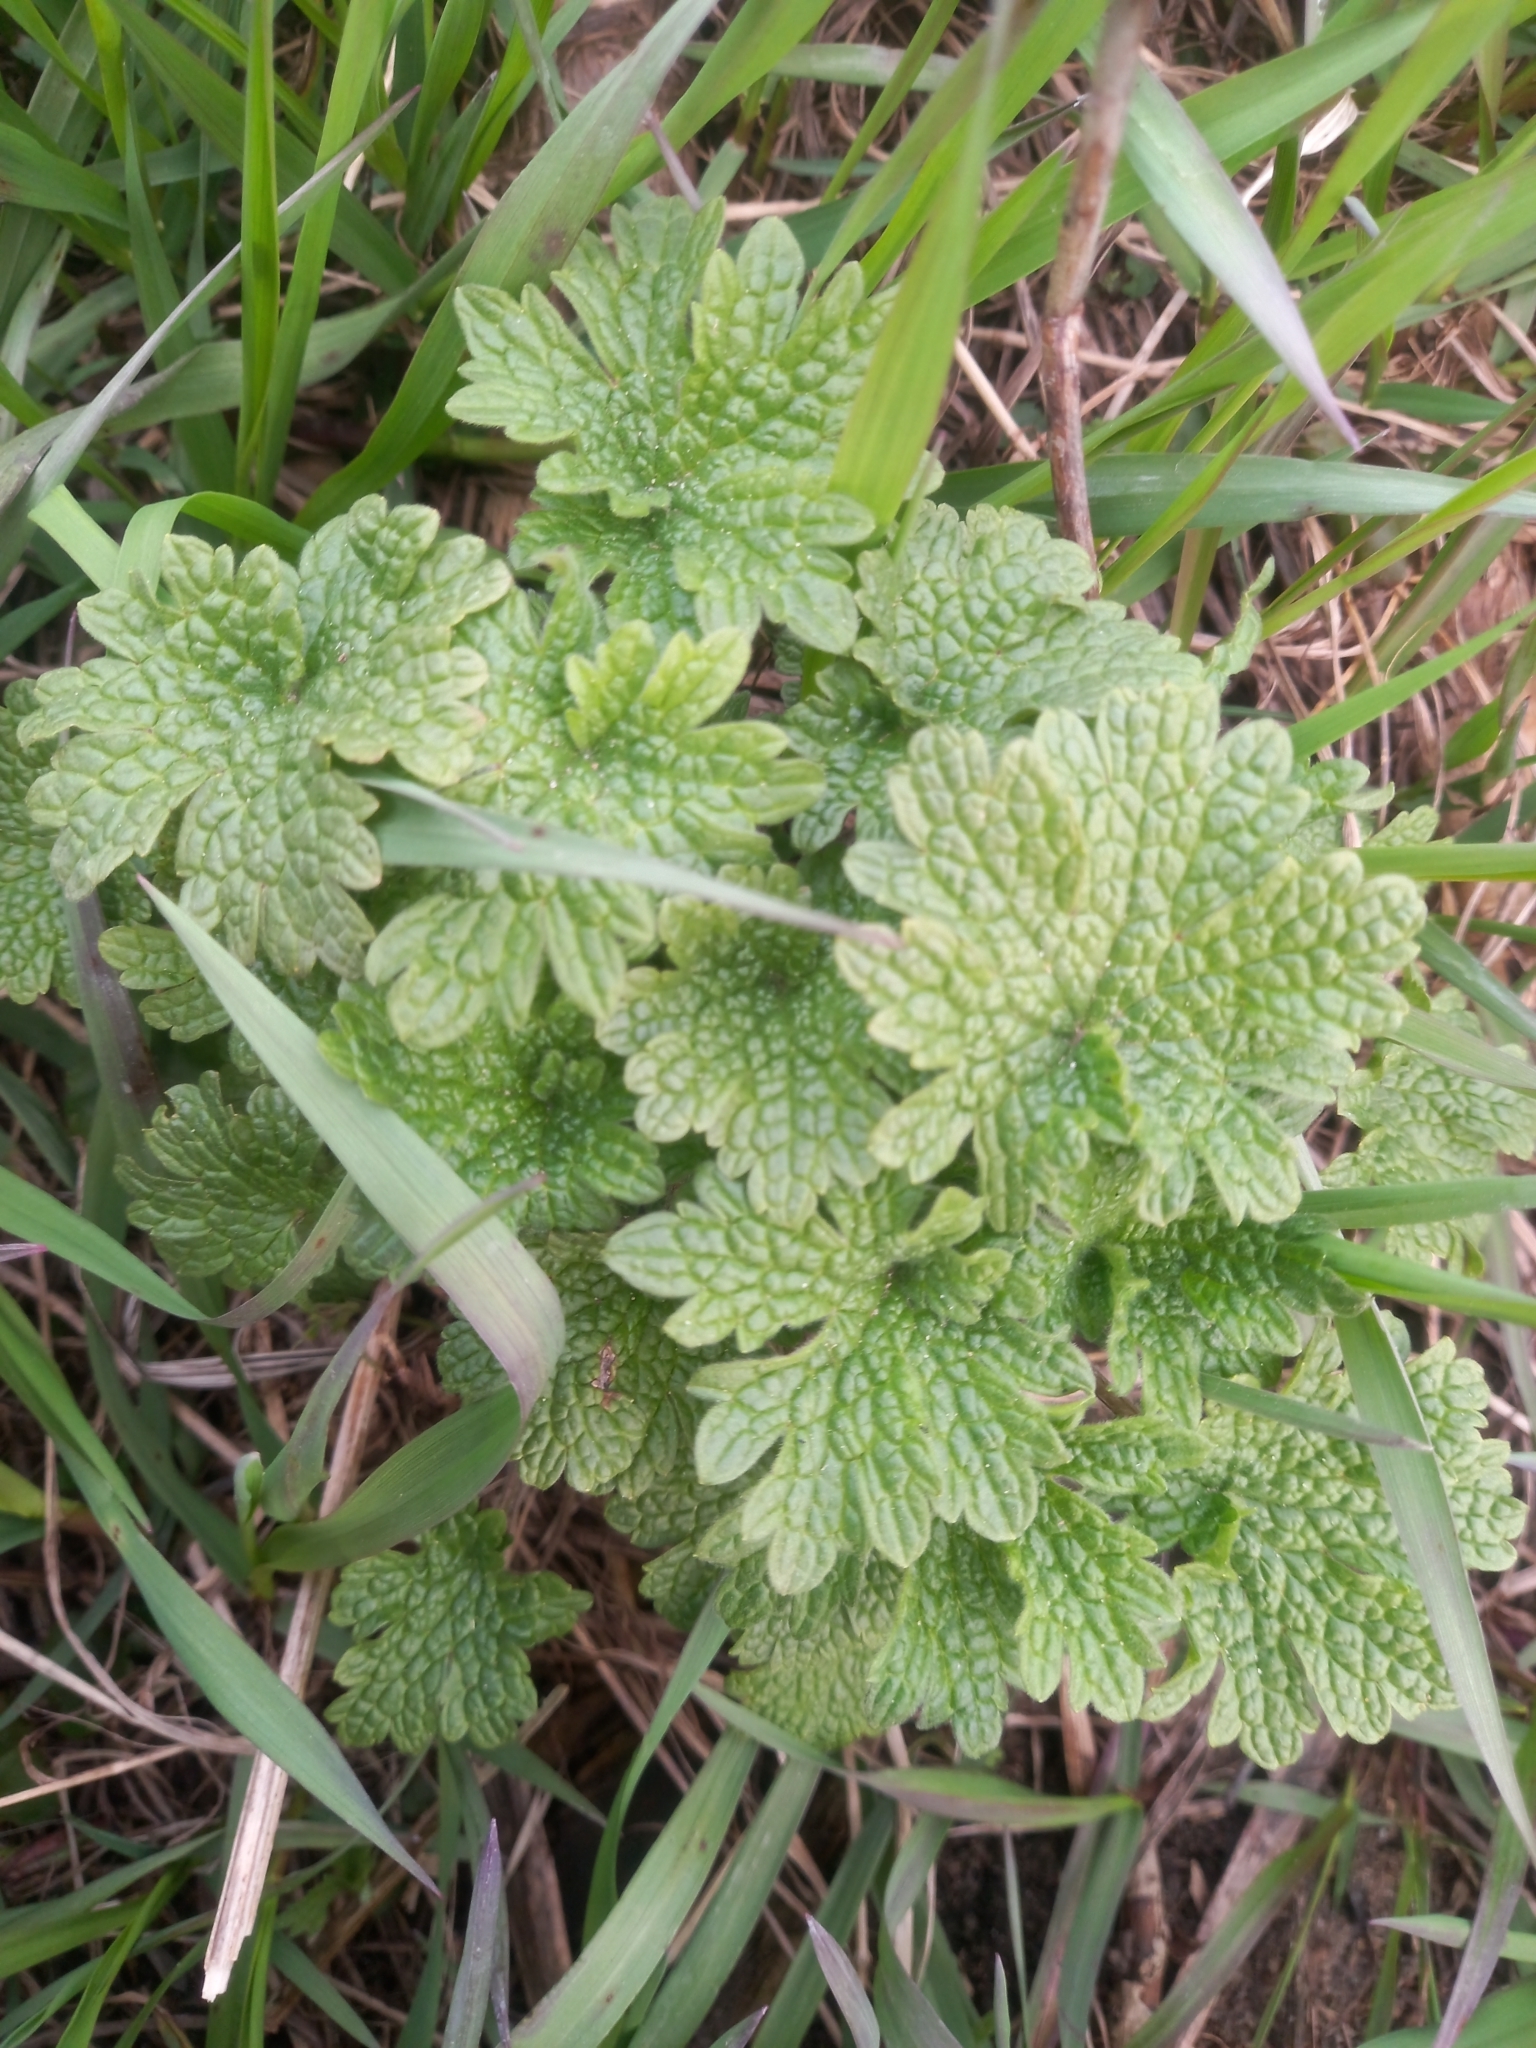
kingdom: Plantae
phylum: Tracheophyta
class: Magnoliopsida
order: Lamiales
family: Lamiaceae
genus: Leonurus
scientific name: Leonurus quinquelobatus
